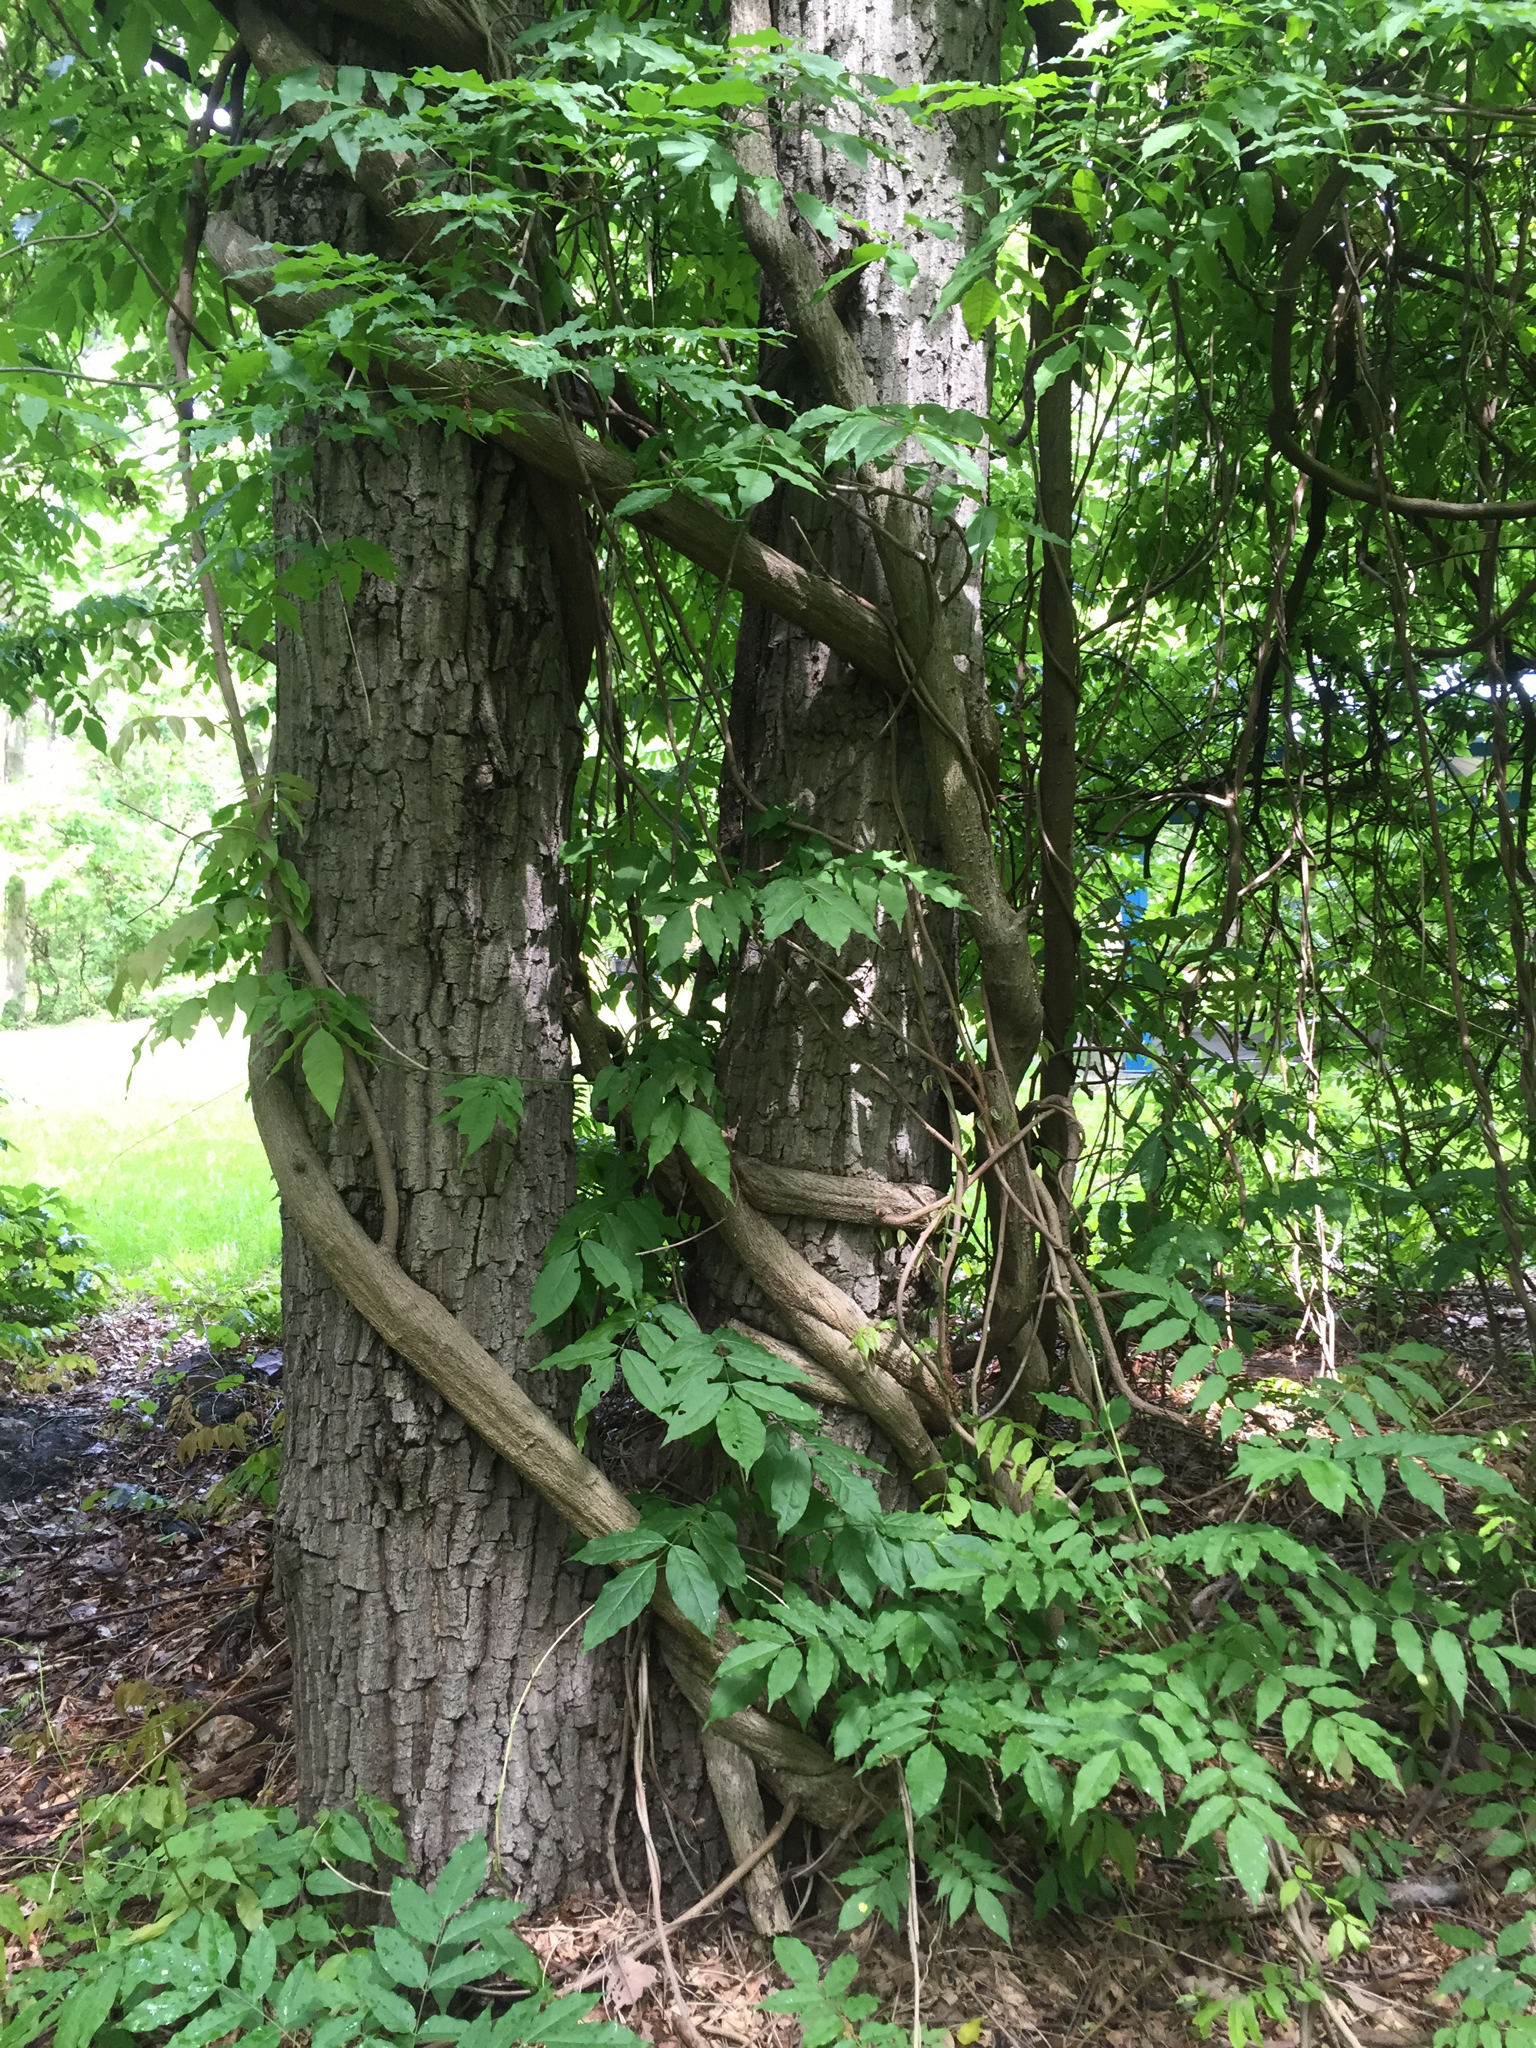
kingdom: Plantae
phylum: Tracheophyta
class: Magnoliopsida
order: Fabales
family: Fabaceae
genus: Wisteria
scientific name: Wisteria floribunda
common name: Japanese wisteria
